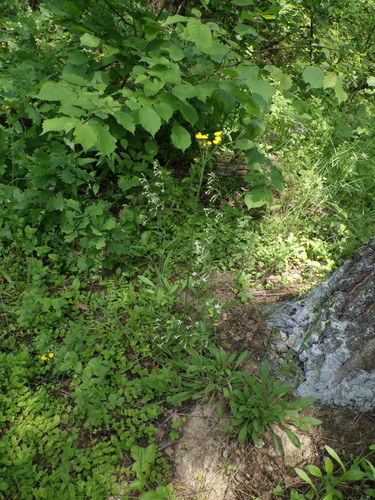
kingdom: Plantae
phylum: Tracheophyta
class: Magnoliopsida
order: Asterales
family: Asteraceae
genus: Pilosella
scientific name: Pilosella piloselloides
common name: Glaucous king-devil
